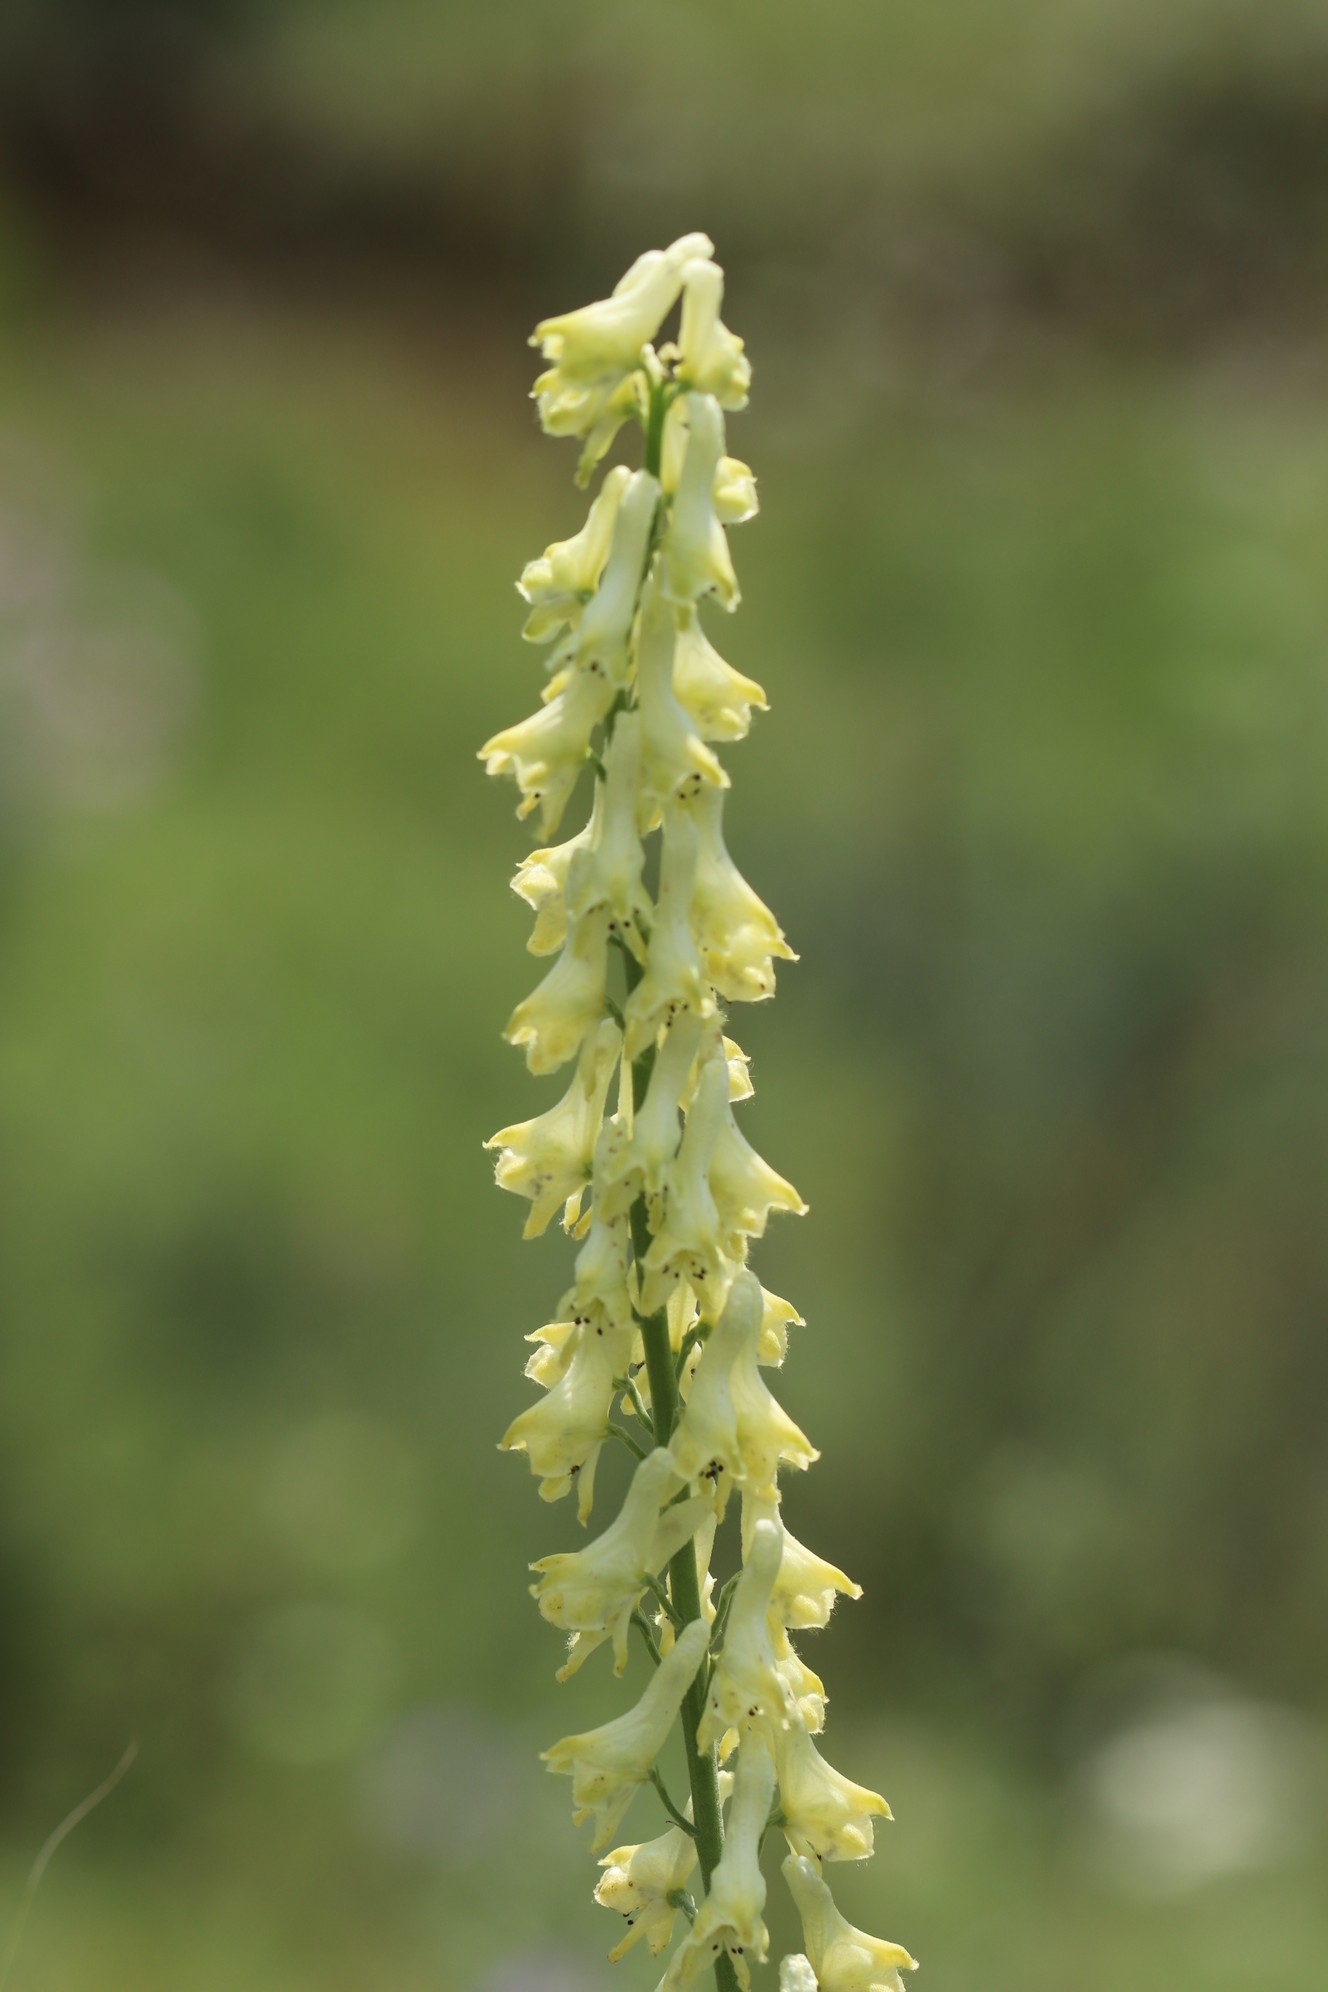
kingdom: Plantae
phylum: Tracheophyta
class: Magnoliopsida
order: Ranunculales
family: Ranunculaceae
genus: Aconitum
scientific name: Aconitum barbatum
